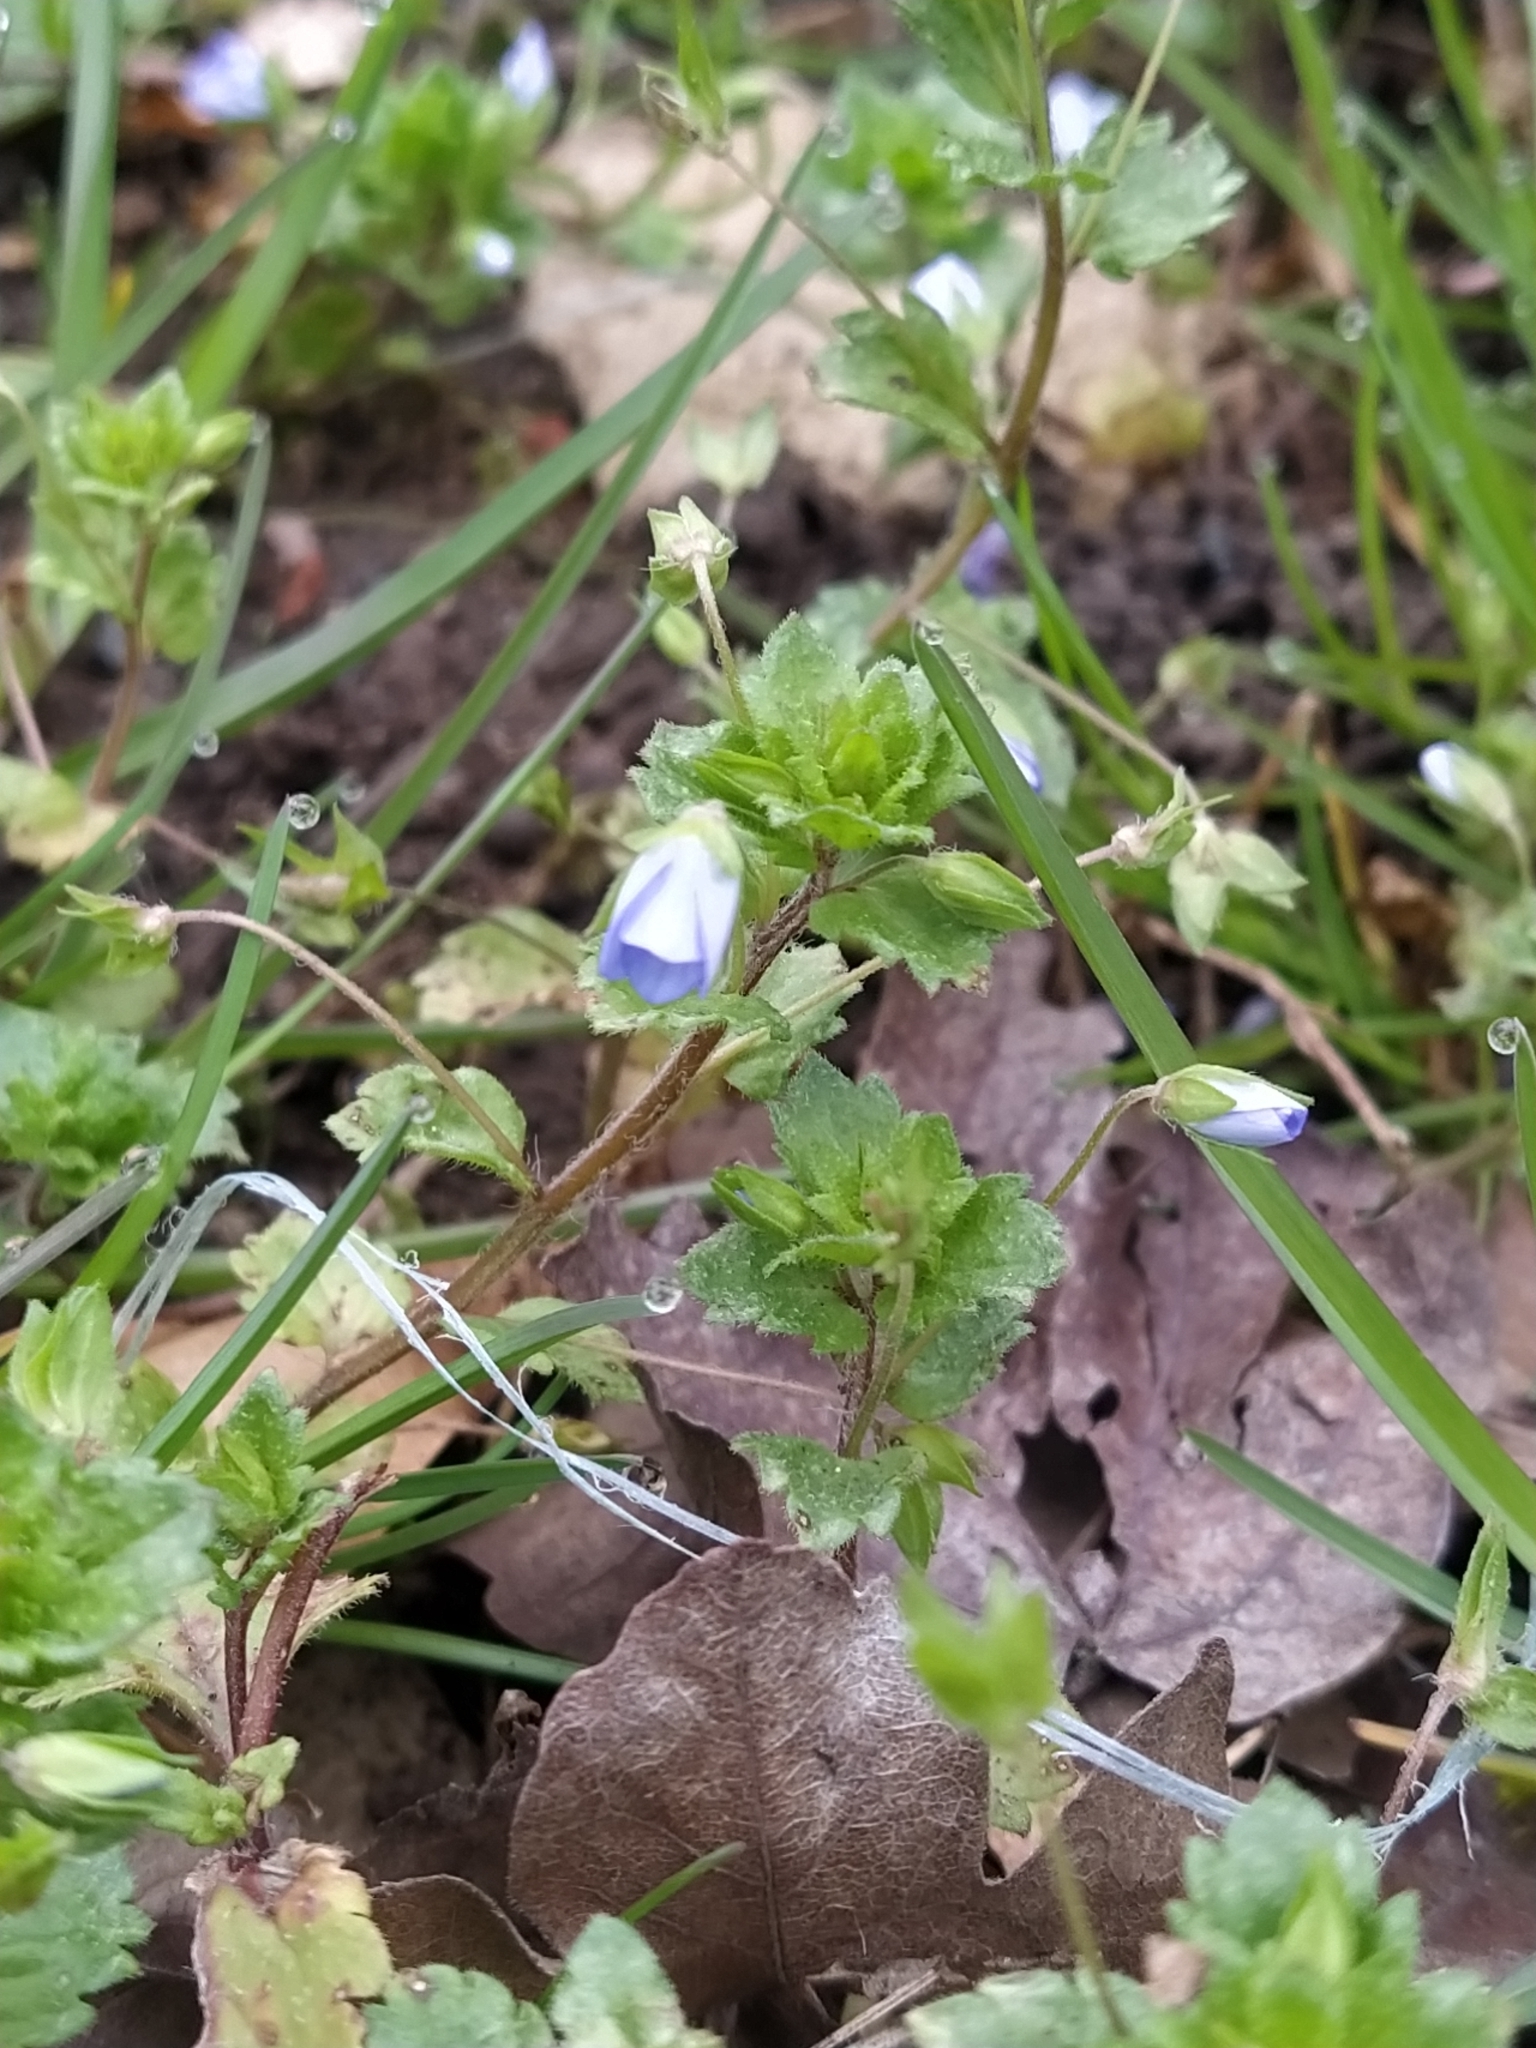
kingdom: Plantae
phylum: Tracheophyta
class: Magnoliopsida
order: Lamiales
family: Plantaginaceae
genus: Veronica
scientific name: Veronica persica
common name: Common field-speedwell
